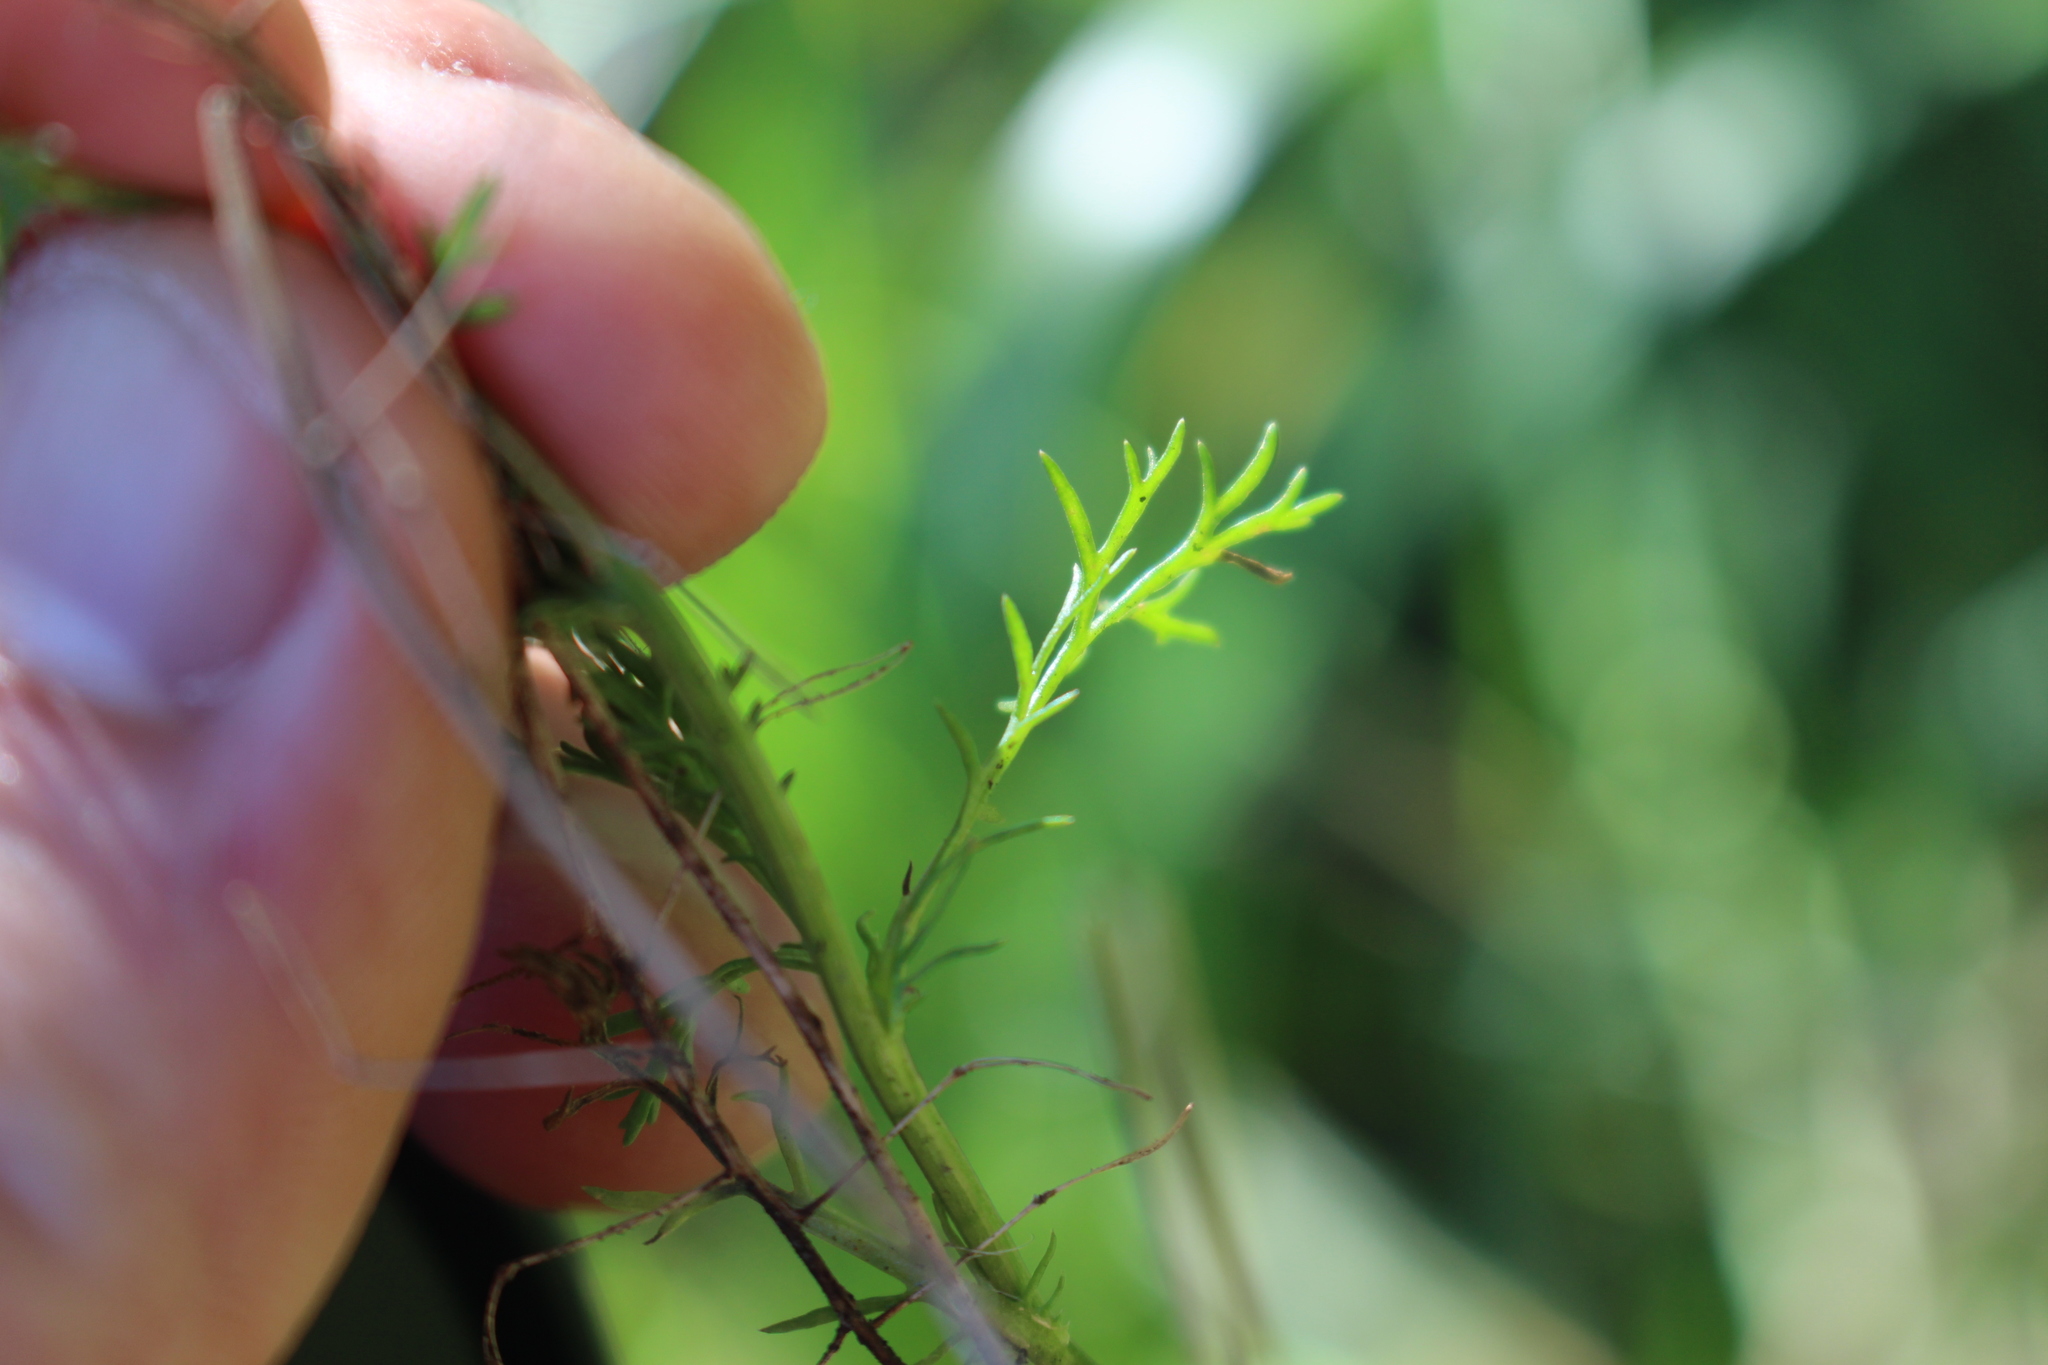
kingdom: Plantae
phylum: Tracheophyta
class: Magnoliopsida
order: Asterales
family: Asteraceae
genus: Matricaria
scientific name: Matricaria discoidea
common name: Disc mayweed
